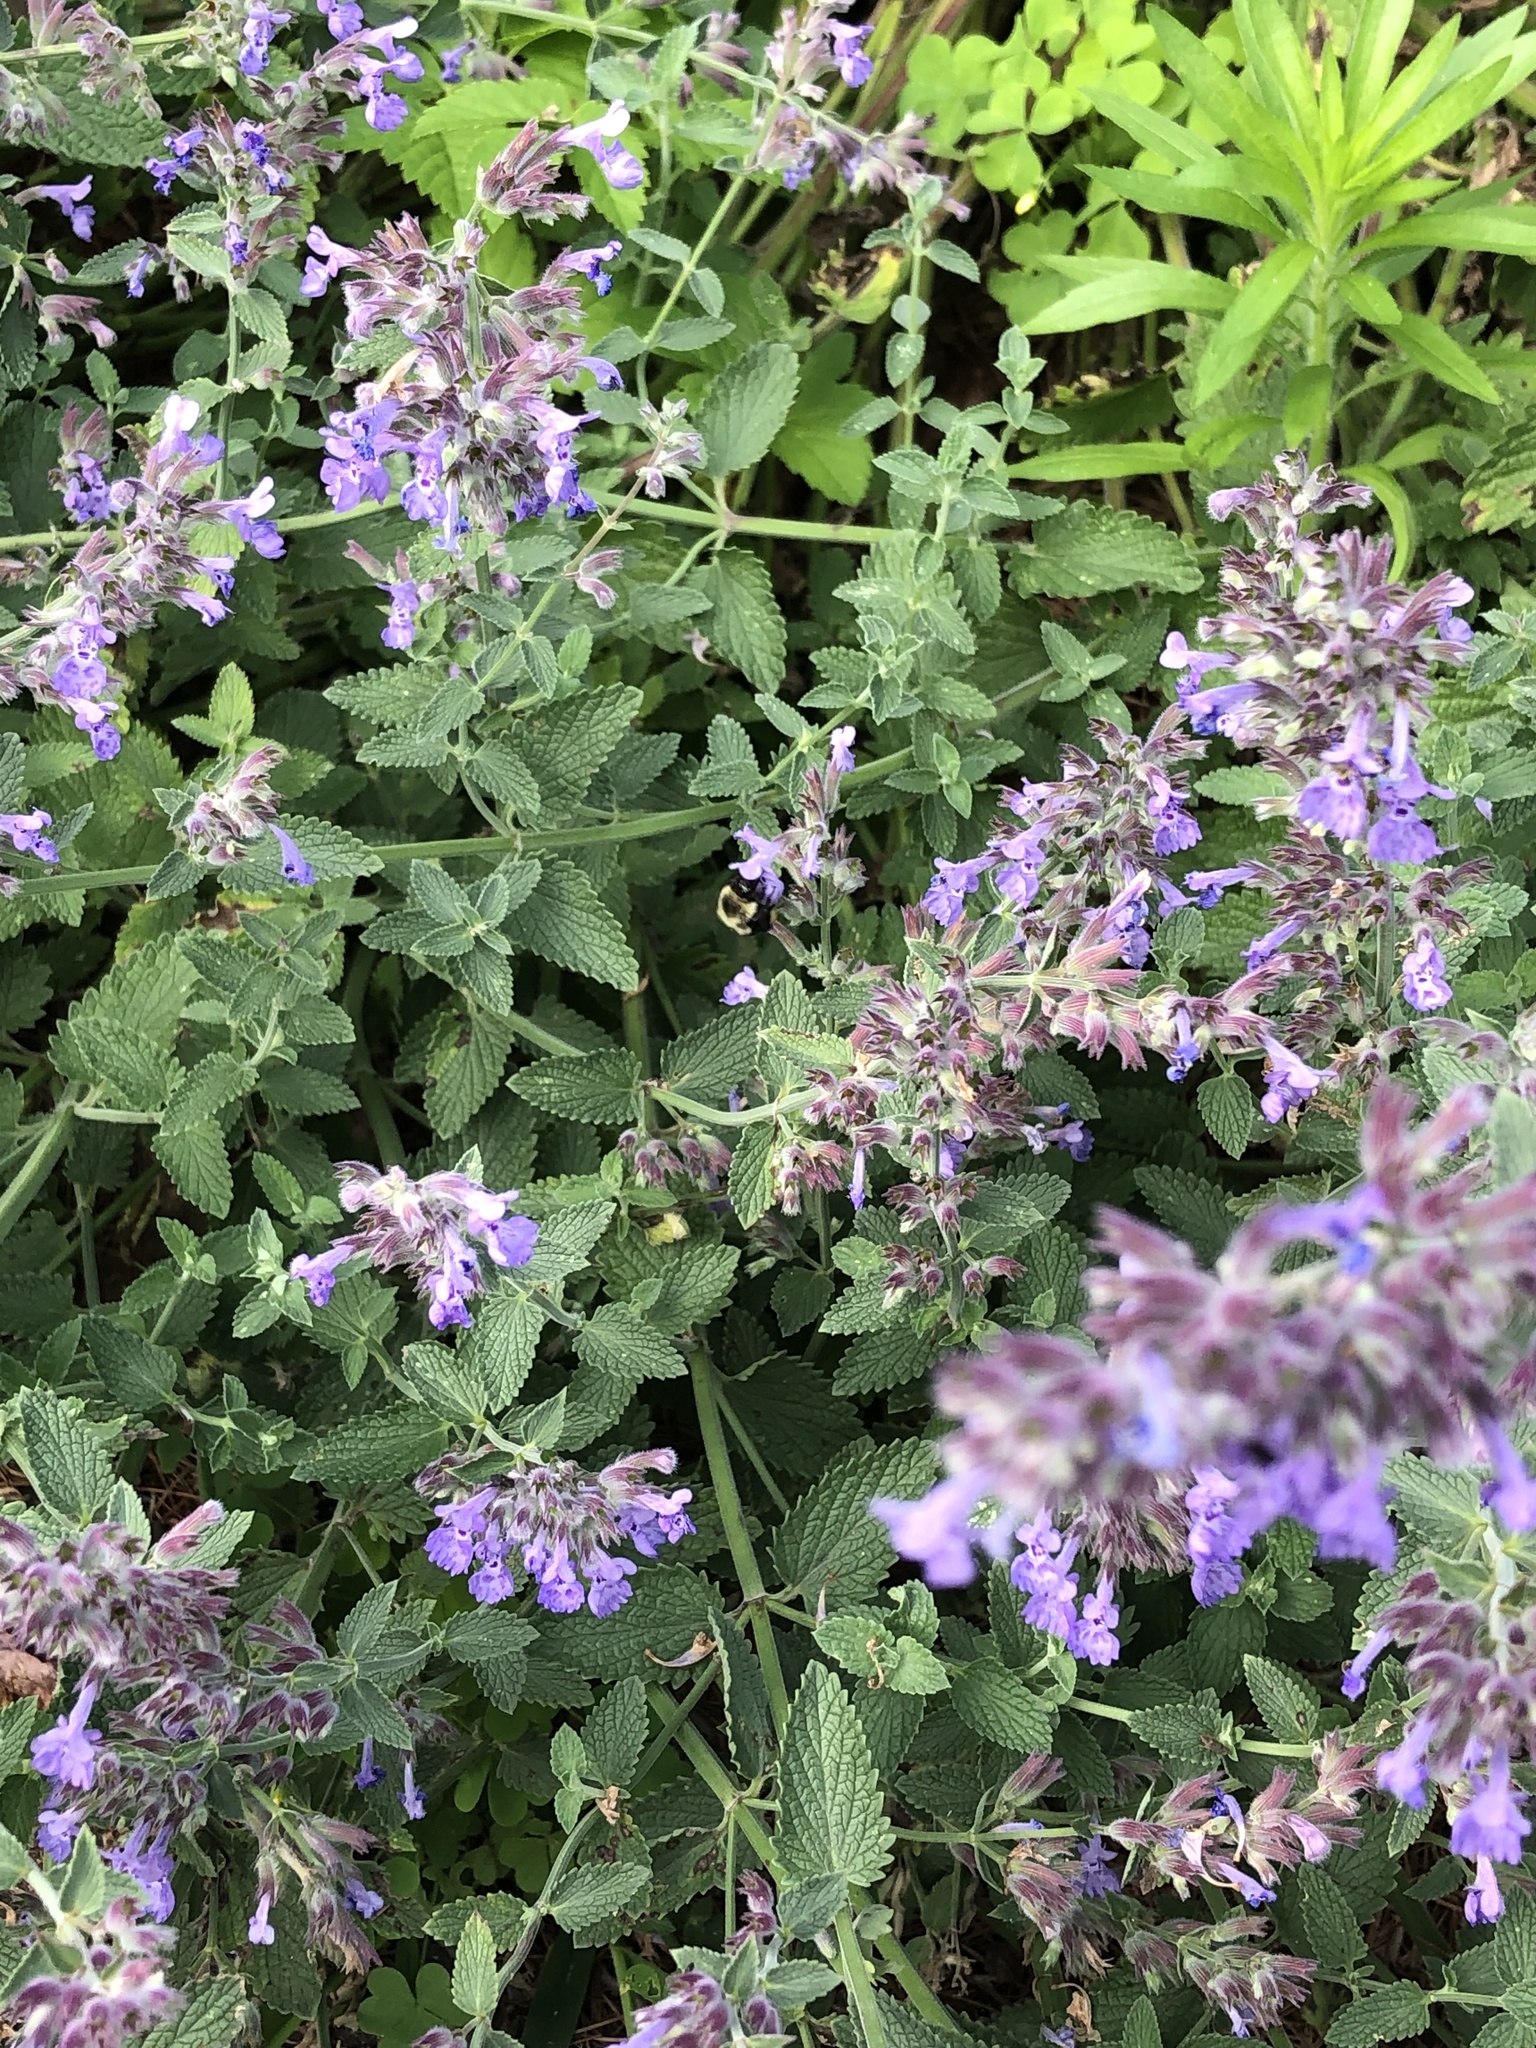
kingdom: Animalia
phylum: Arthropoda
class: Insecta
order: Hymenoptera
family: Apidae
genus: Bombus
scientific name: Bombus bimaculatus
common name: Two-spotted bumble bee
